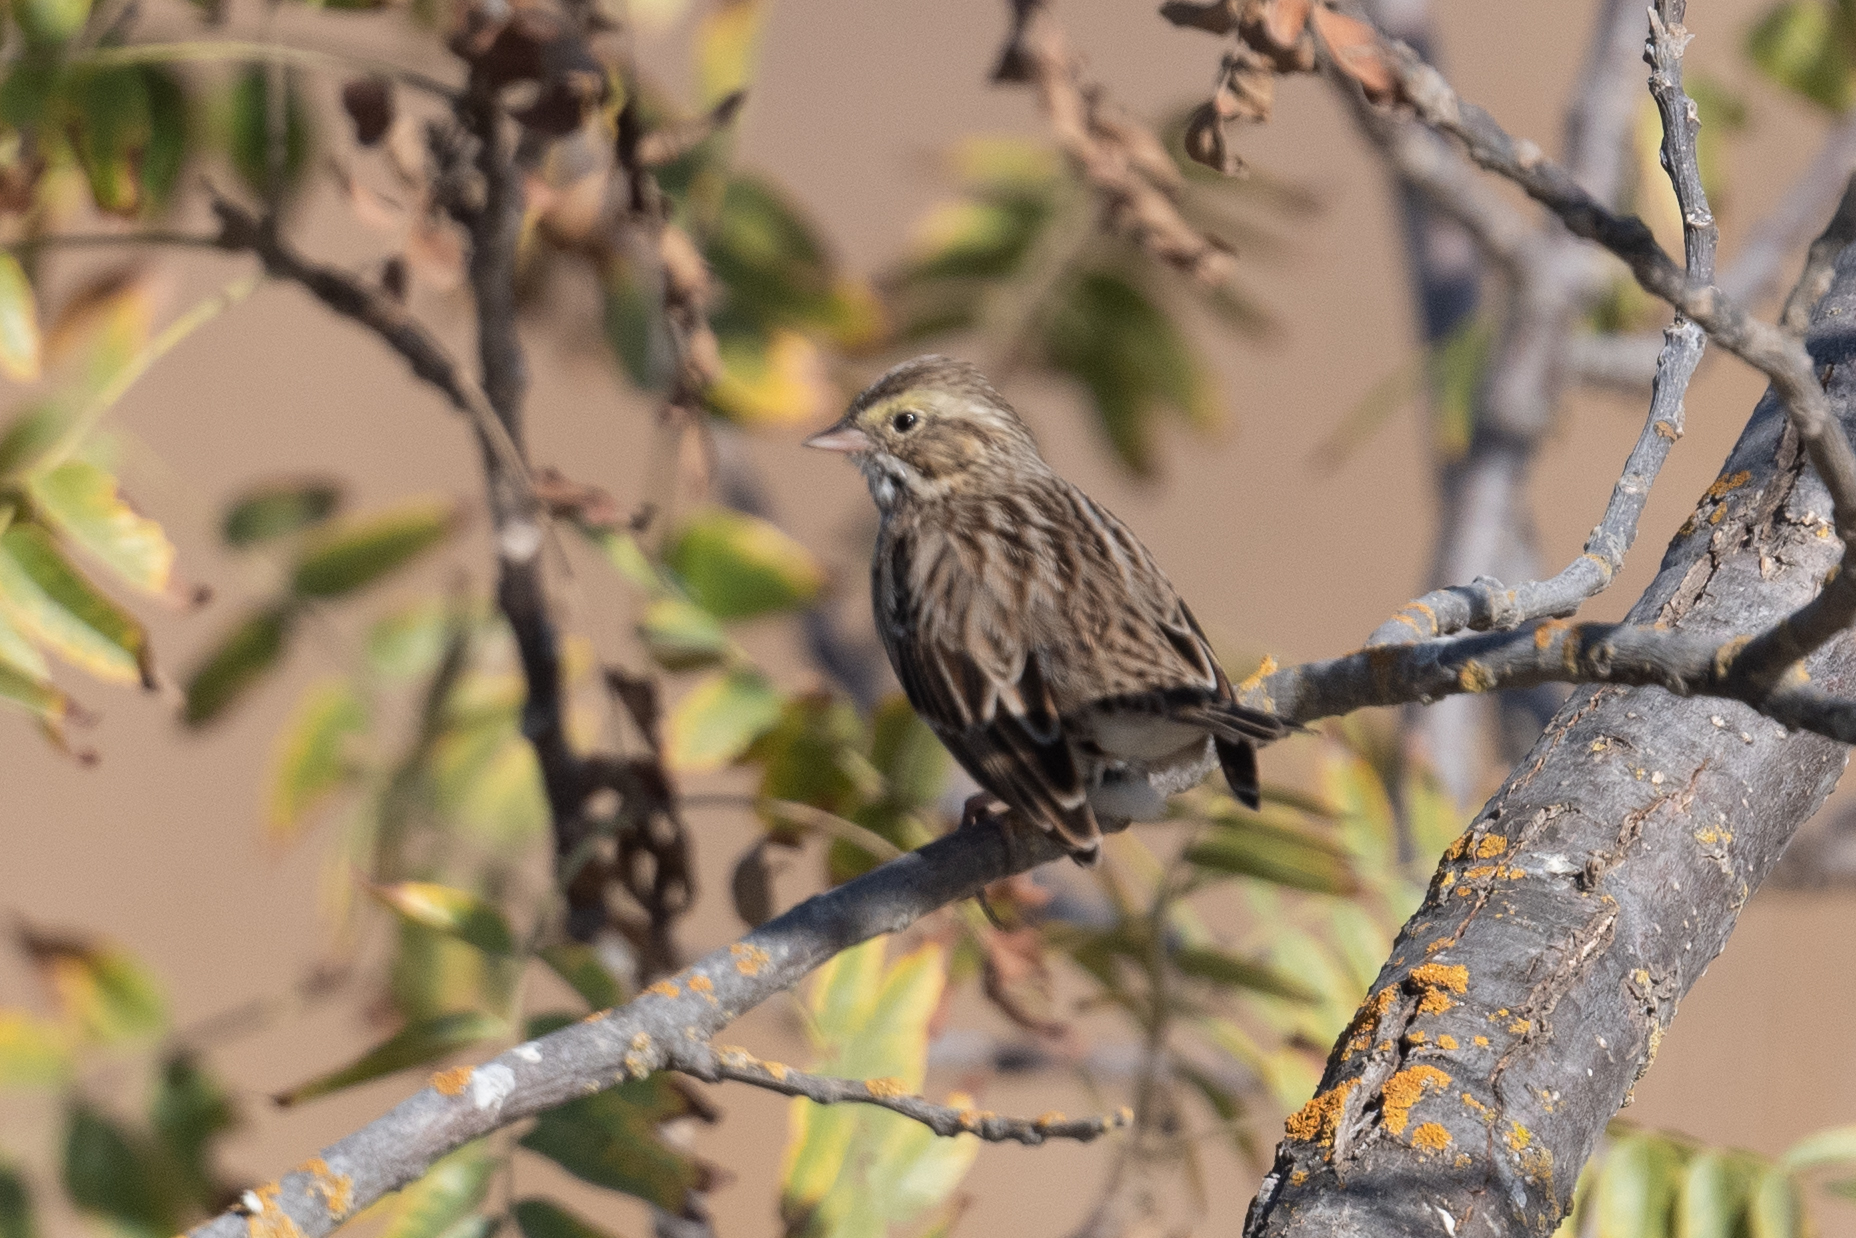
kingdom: Animalia
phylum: Chordata
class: Aves
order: Passeriformes
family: Passerellidae
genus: Passerculus
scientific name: Passerculus sandwichensis
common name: Savannah sparrow
